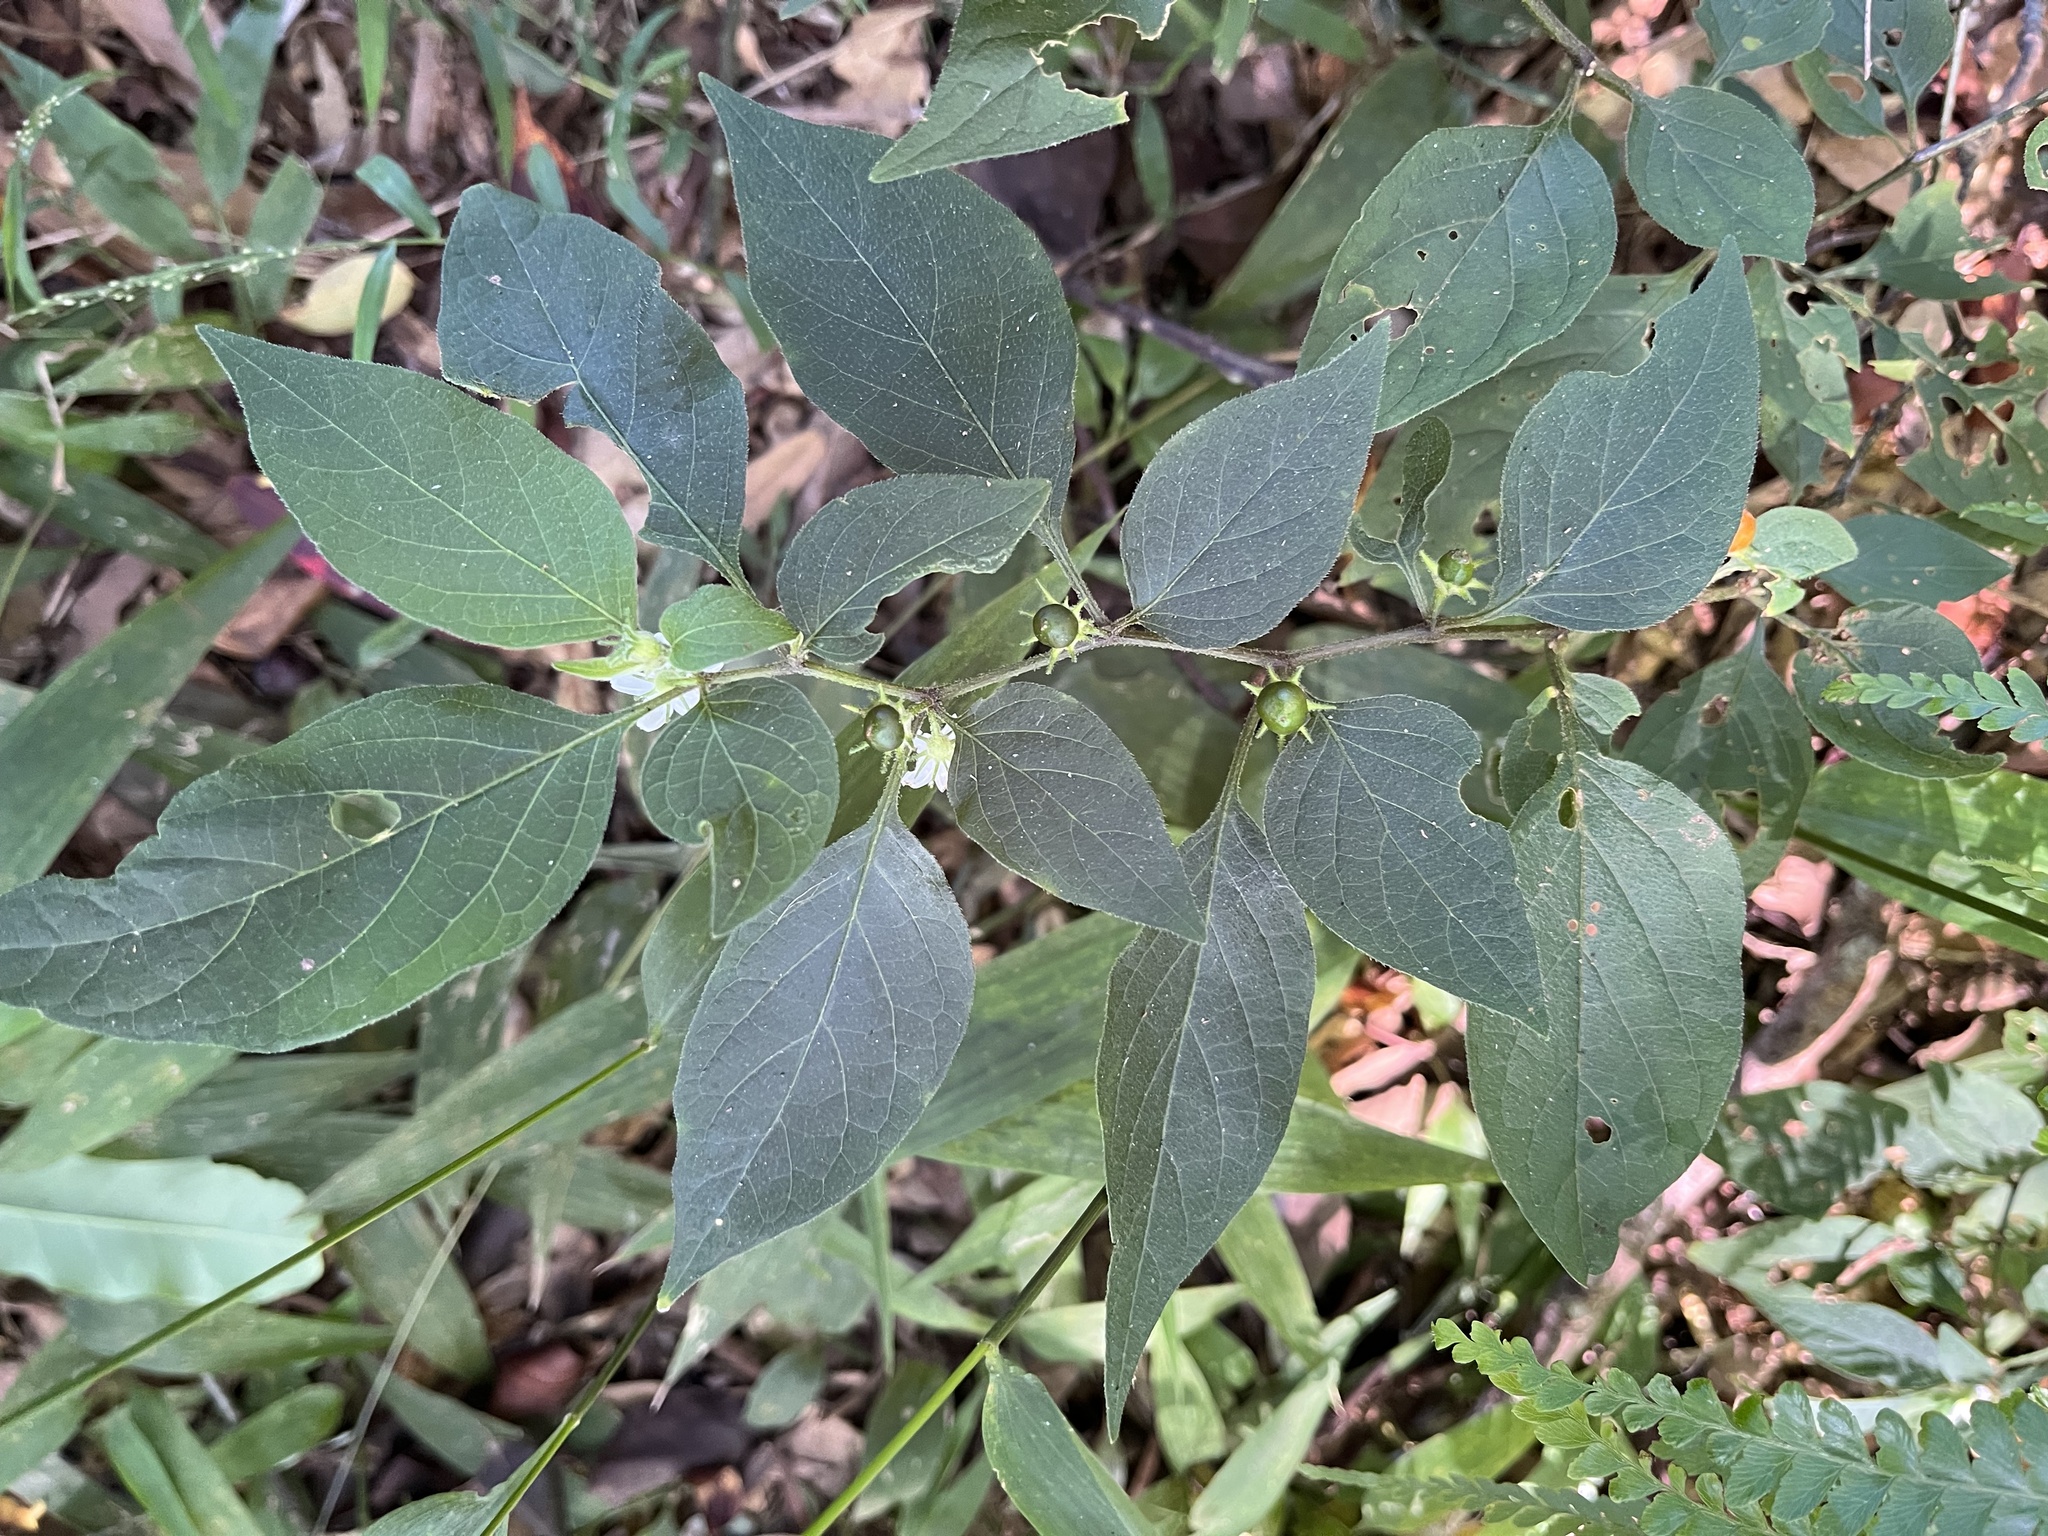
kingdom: Plantae
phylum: Tracheophyta
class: Magnoliopsida
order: Solanales
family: Solanaceae
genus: Lycianthes
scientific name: Lycianthes biflora
